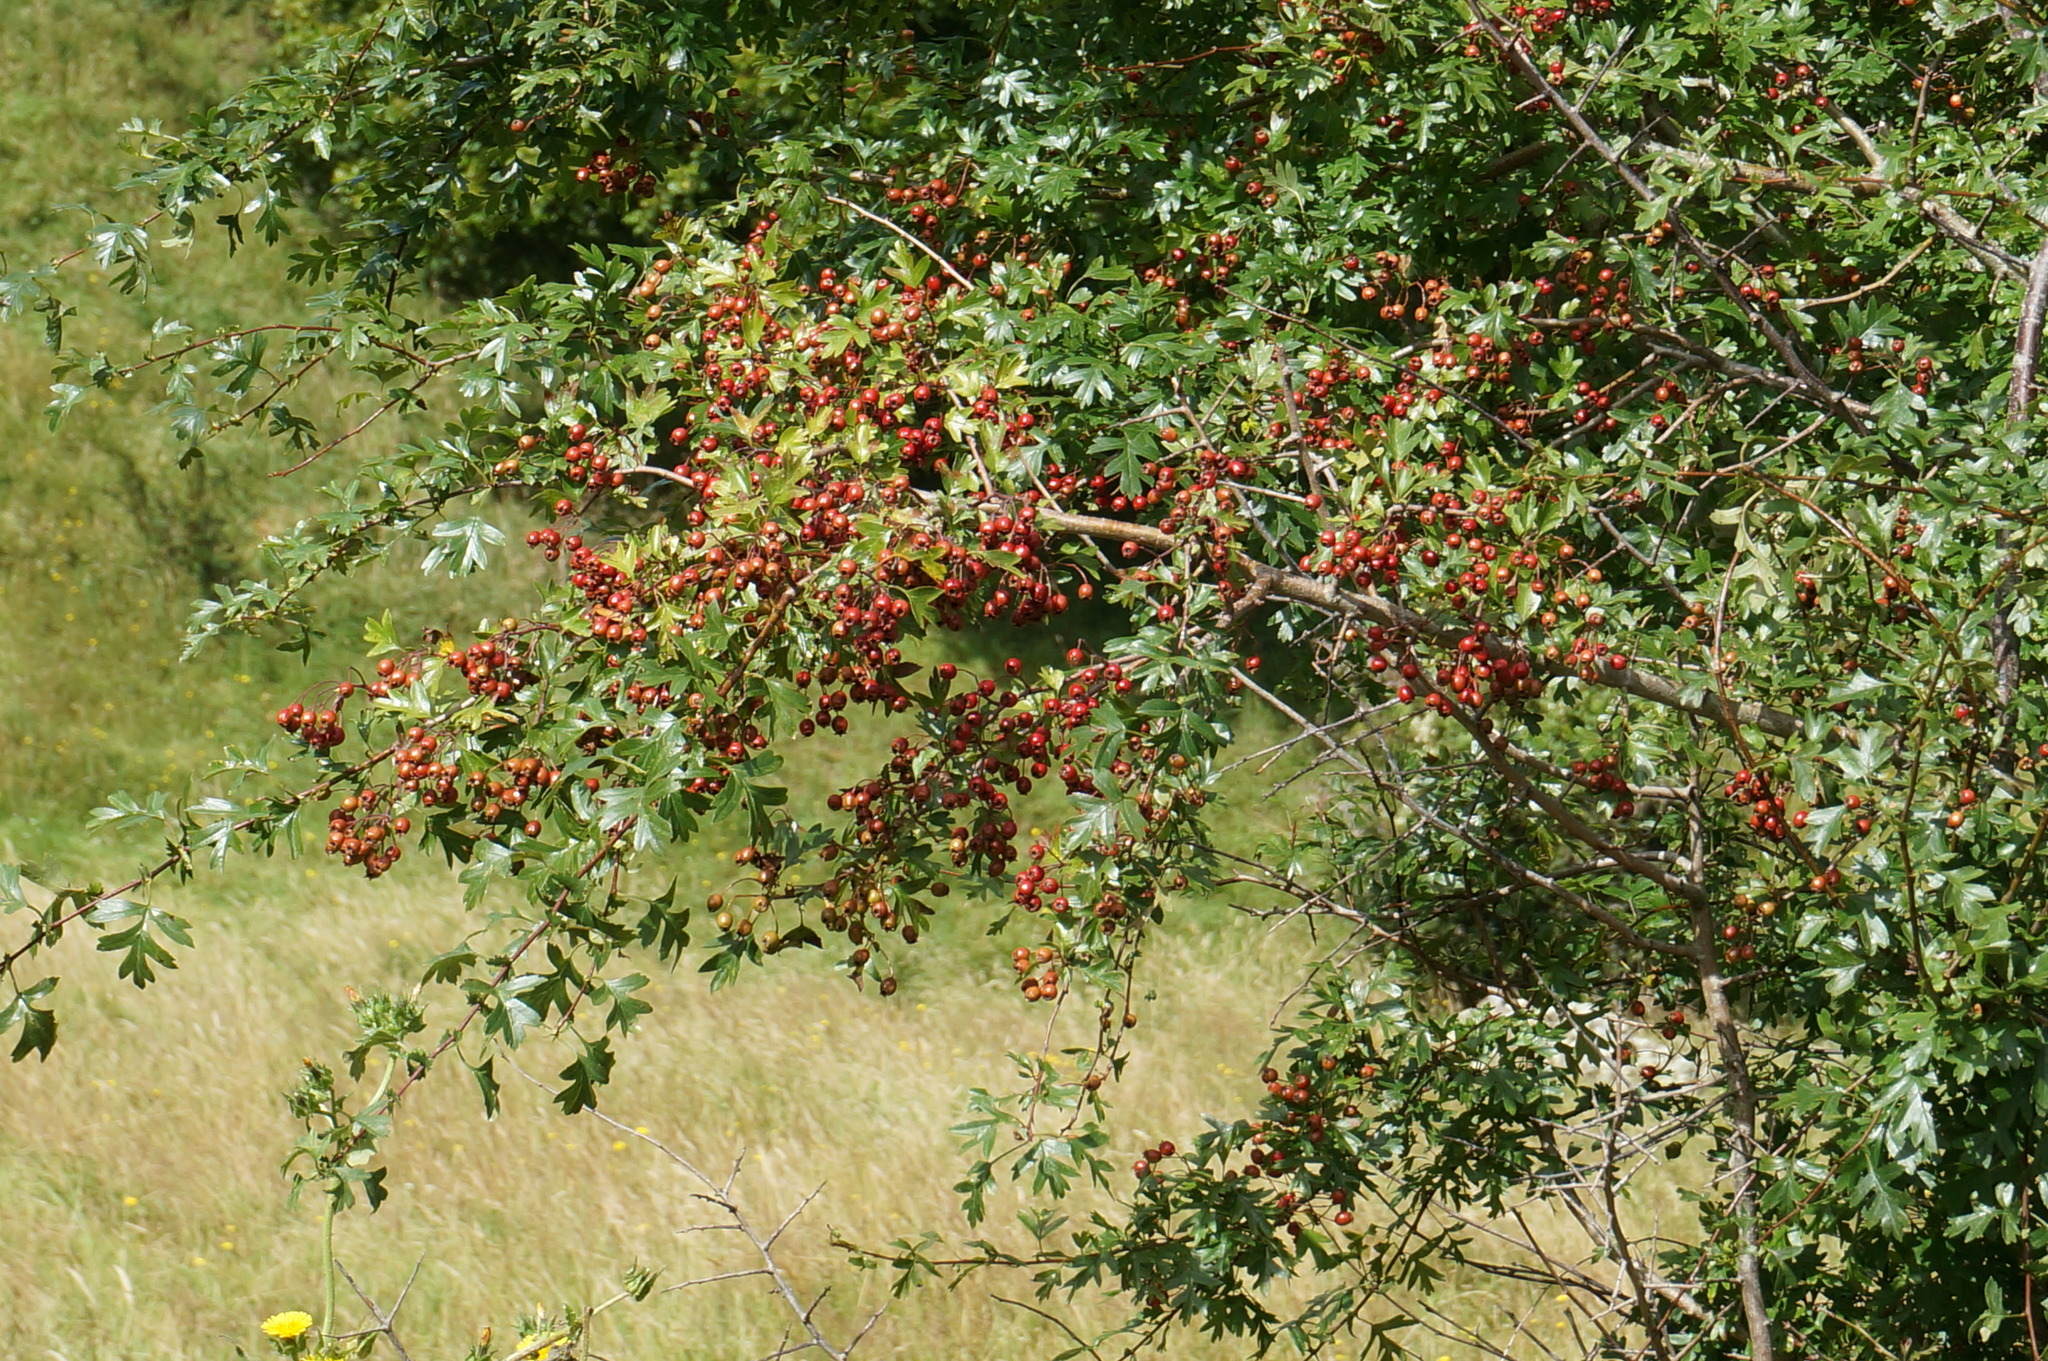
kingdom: Plantae
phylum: Tracheophyta
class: Magnoliopsida
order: Rosales
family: Rosaceae
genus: Crataegus
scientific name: Crataegus monogyna
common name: Hawthorn
